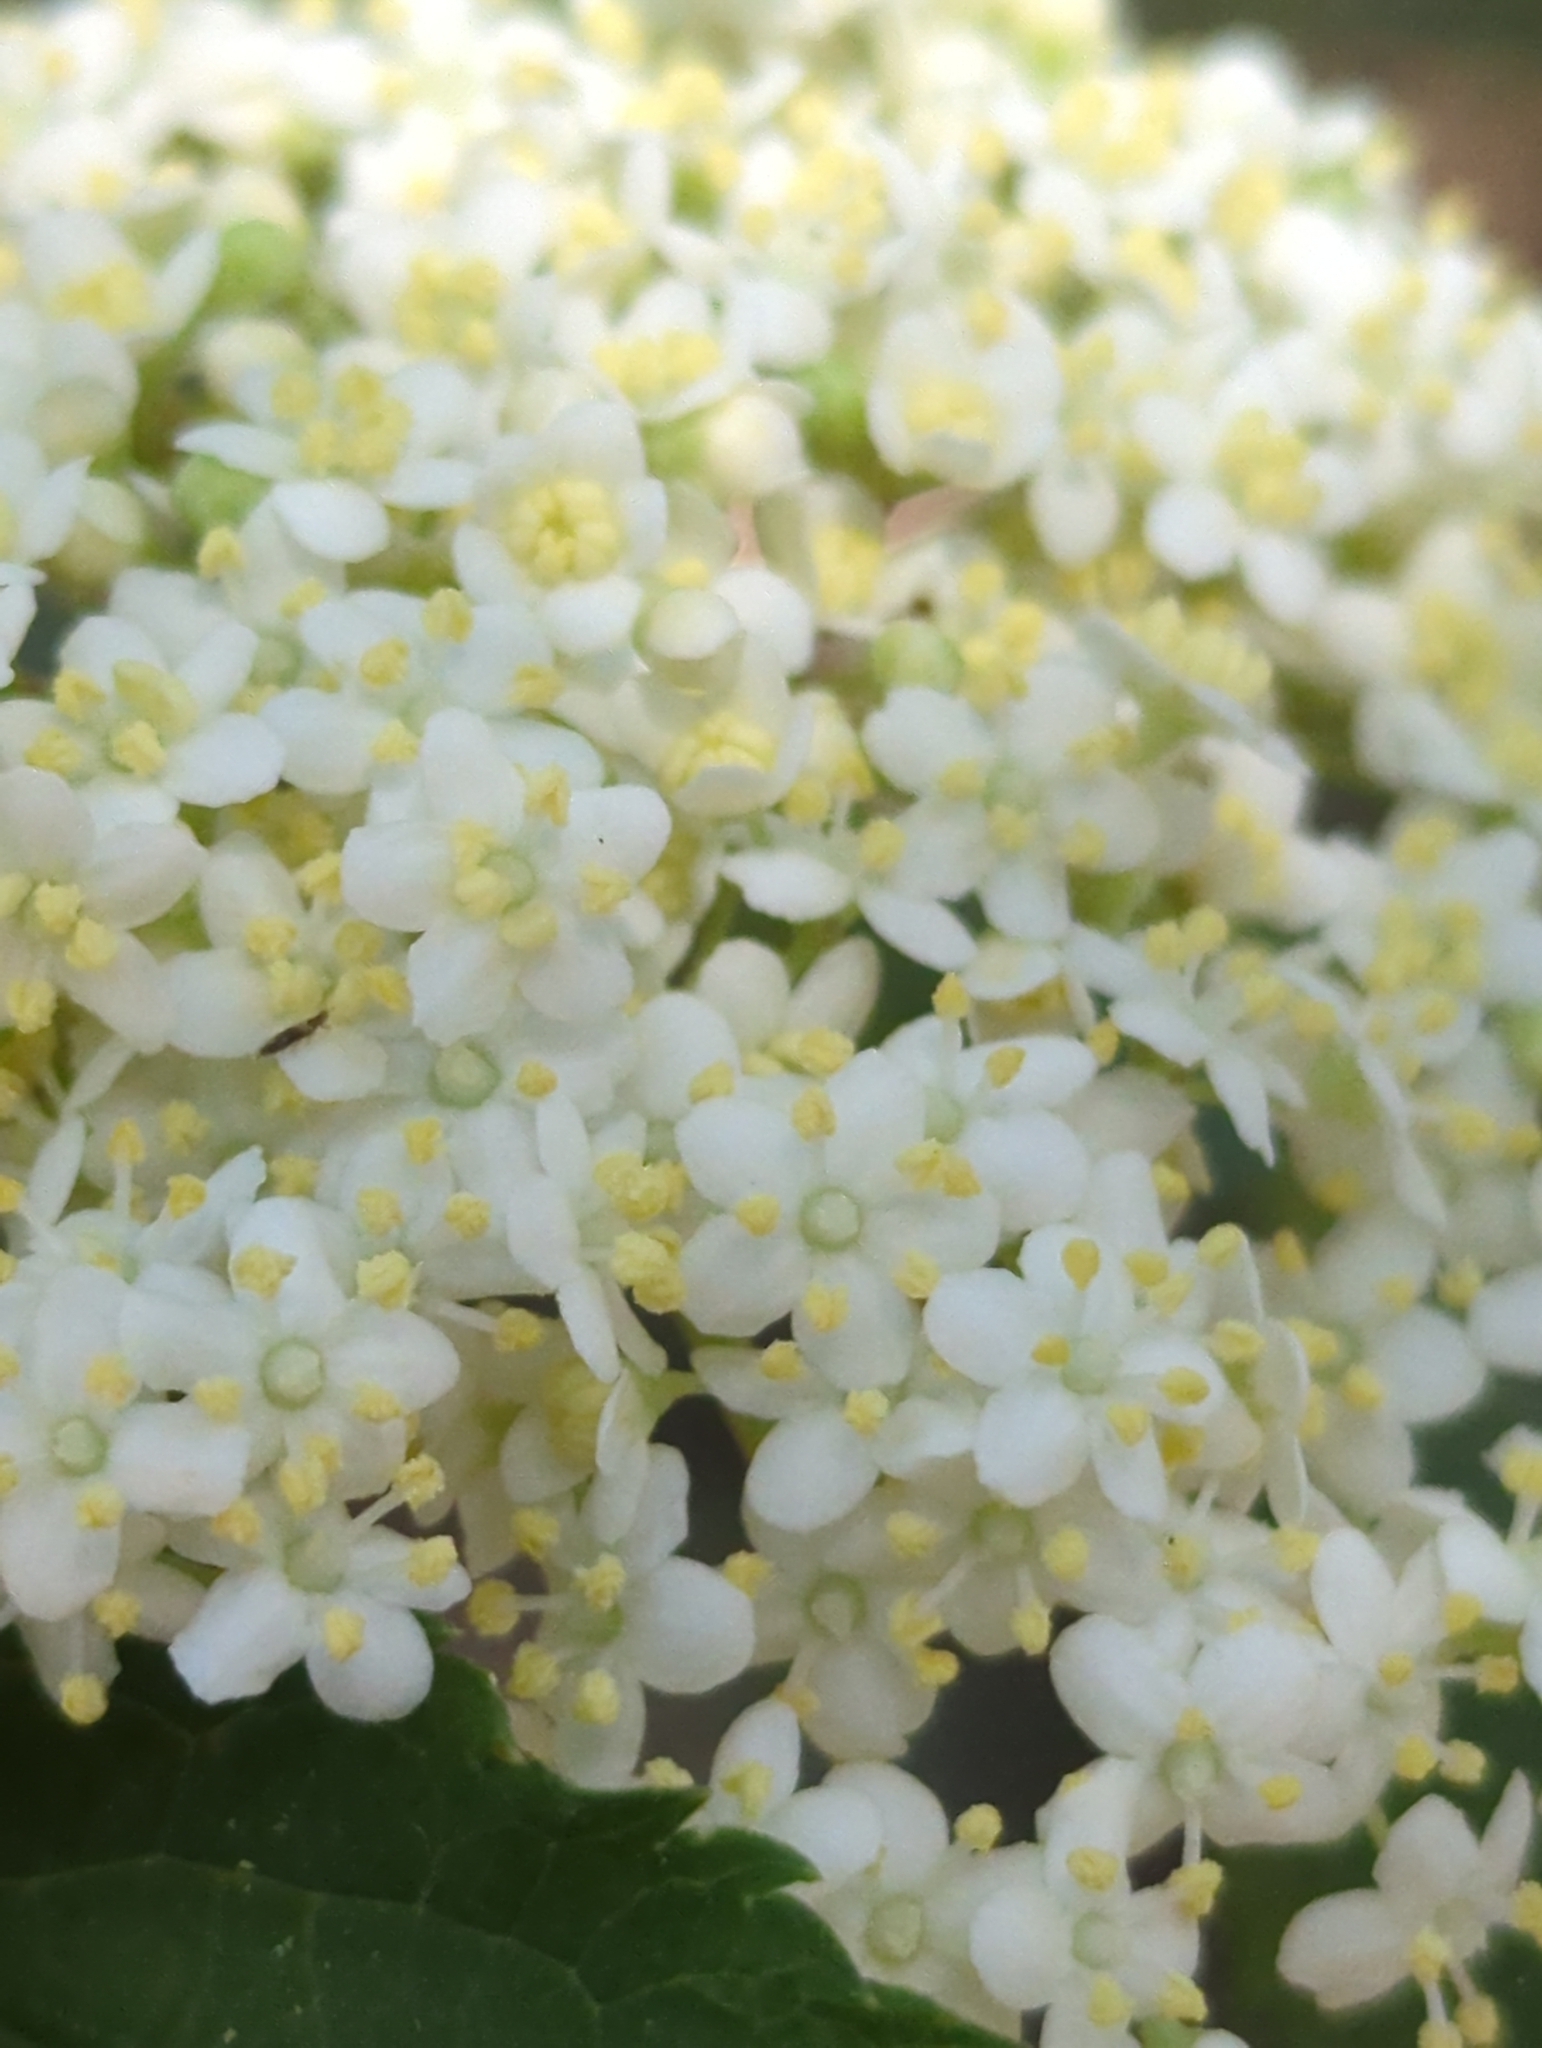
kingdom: Plantae
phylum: Tracheophyta
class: Magnoliopsida
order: Dipsacales
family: Viburnaceae
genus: Sambucus
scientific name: Sambucus nigra
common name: Elder
